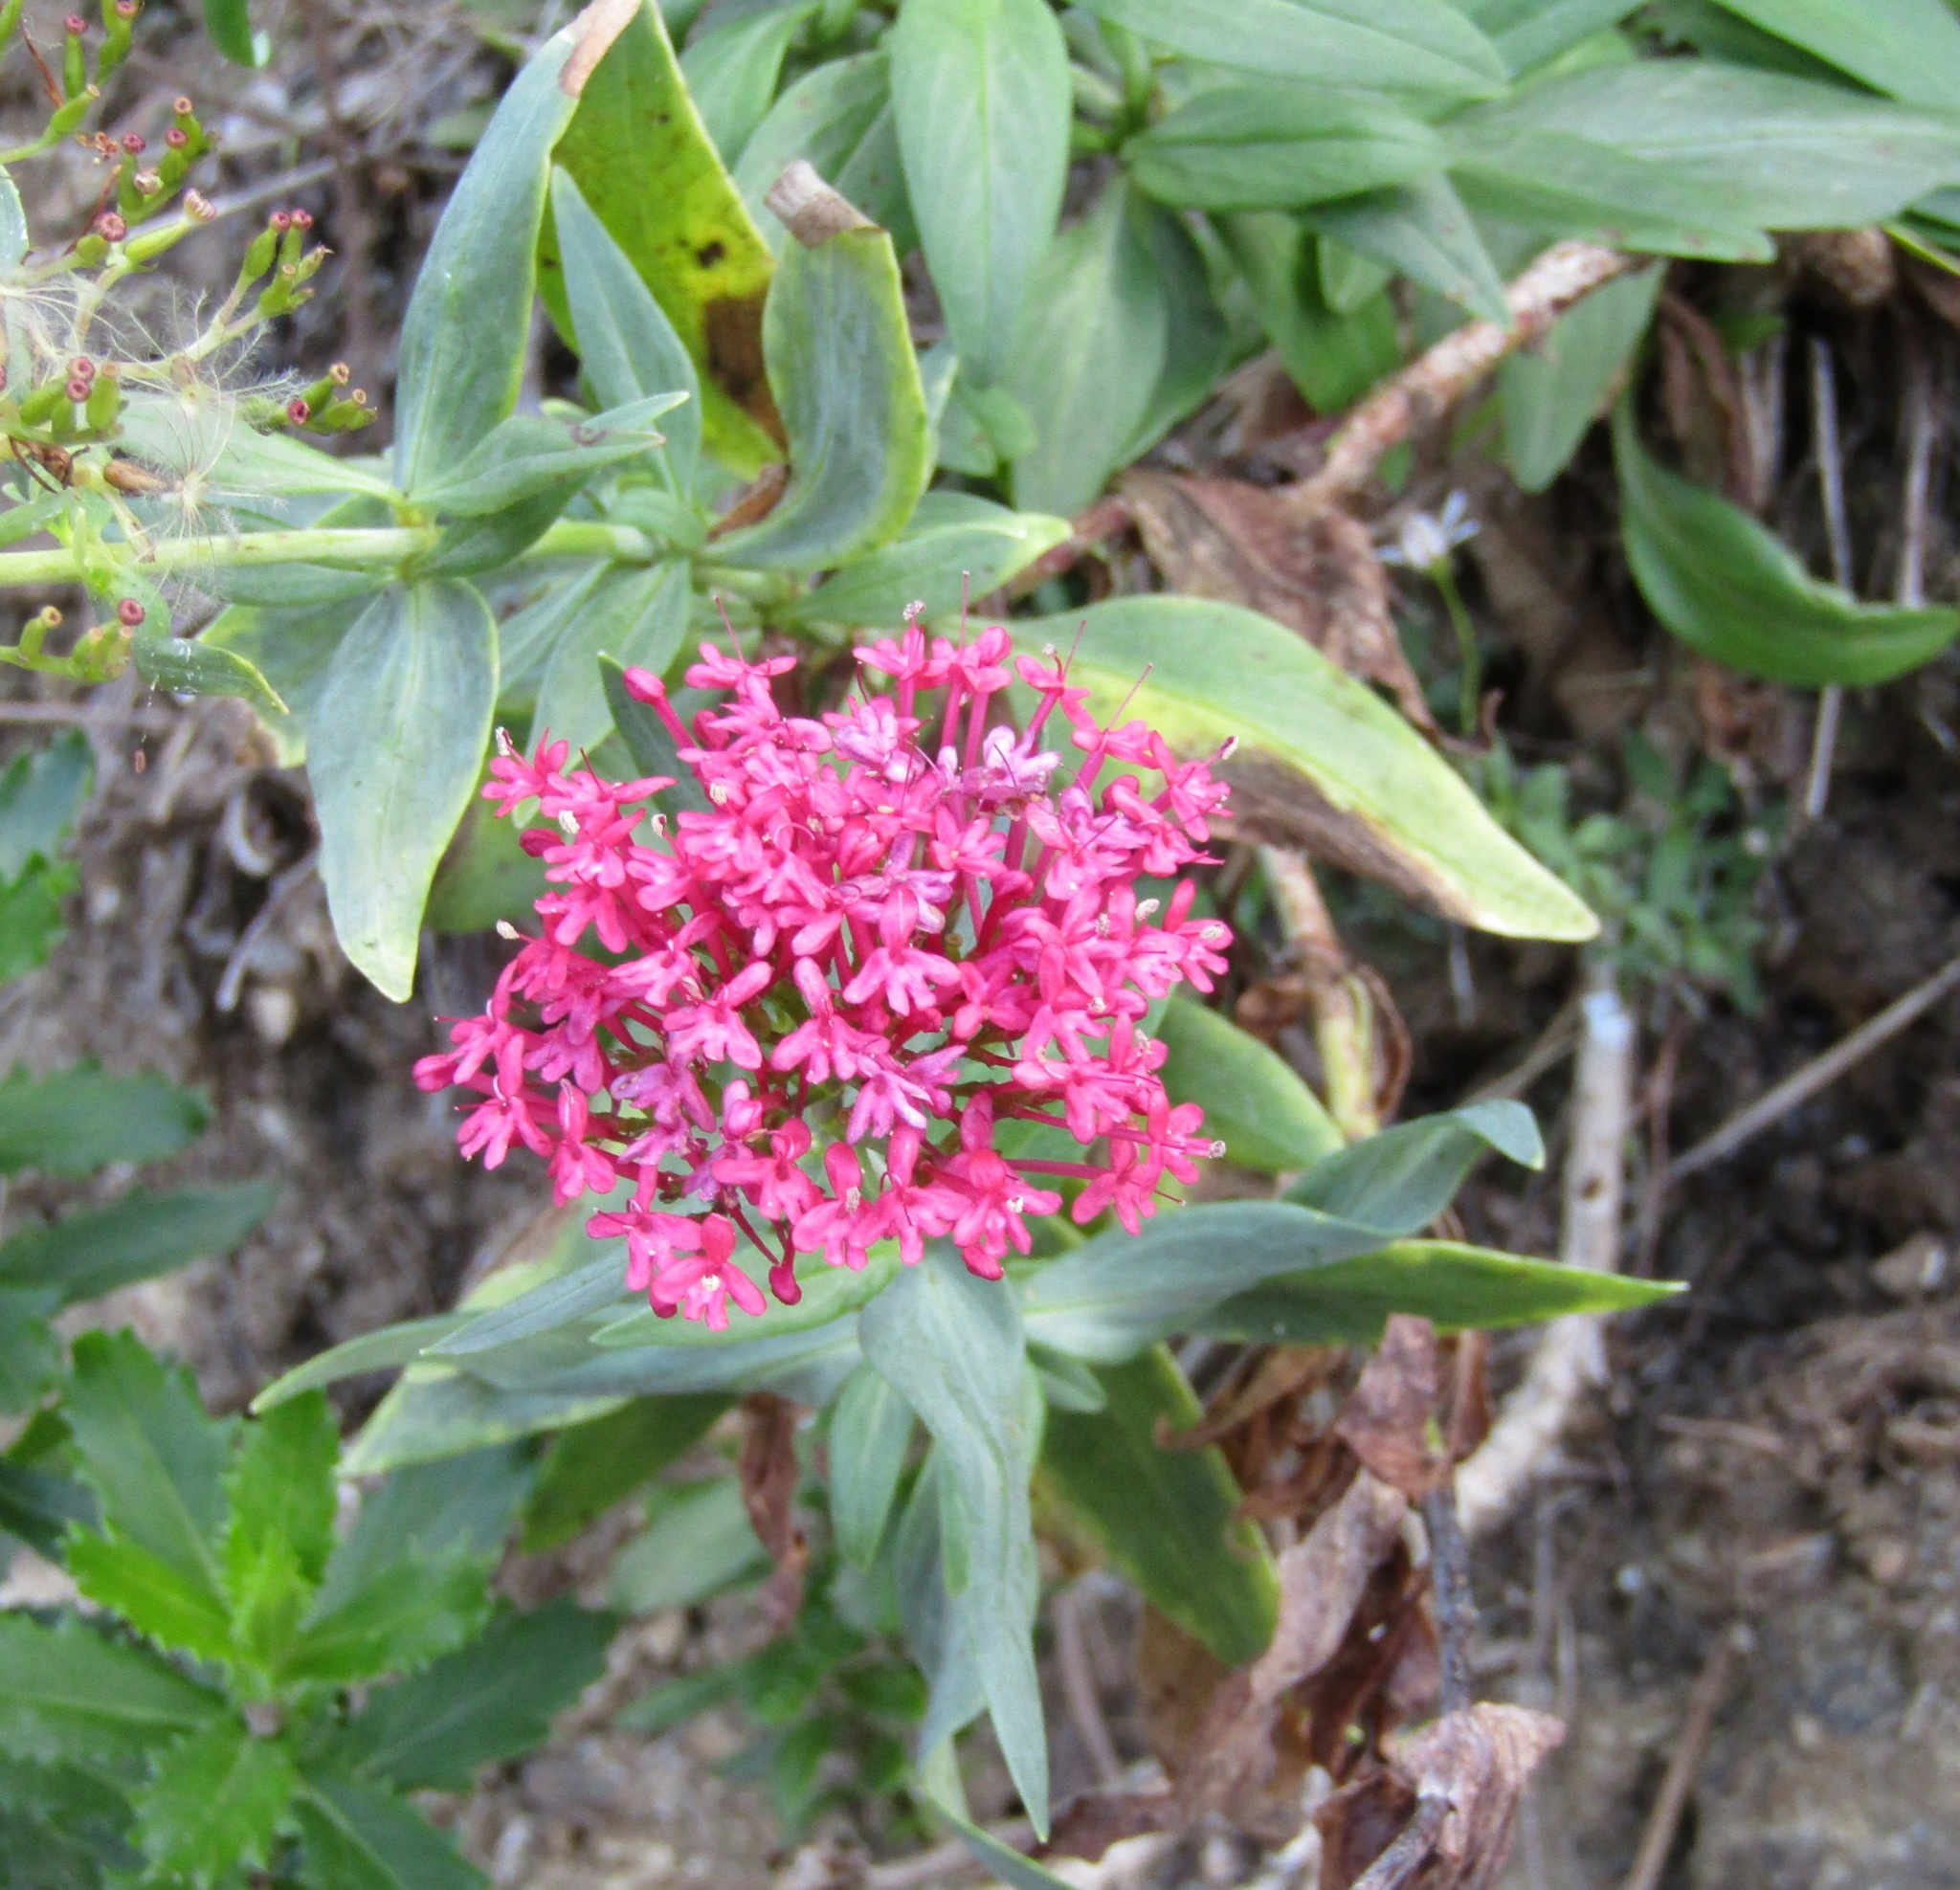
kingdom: Plantae
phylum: Tracheophyta
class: Magnoliopsida
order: Dipsacales
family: Caprifoliaceae
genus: Centranthus
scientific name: Centranthus ruber
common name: Red valerian
